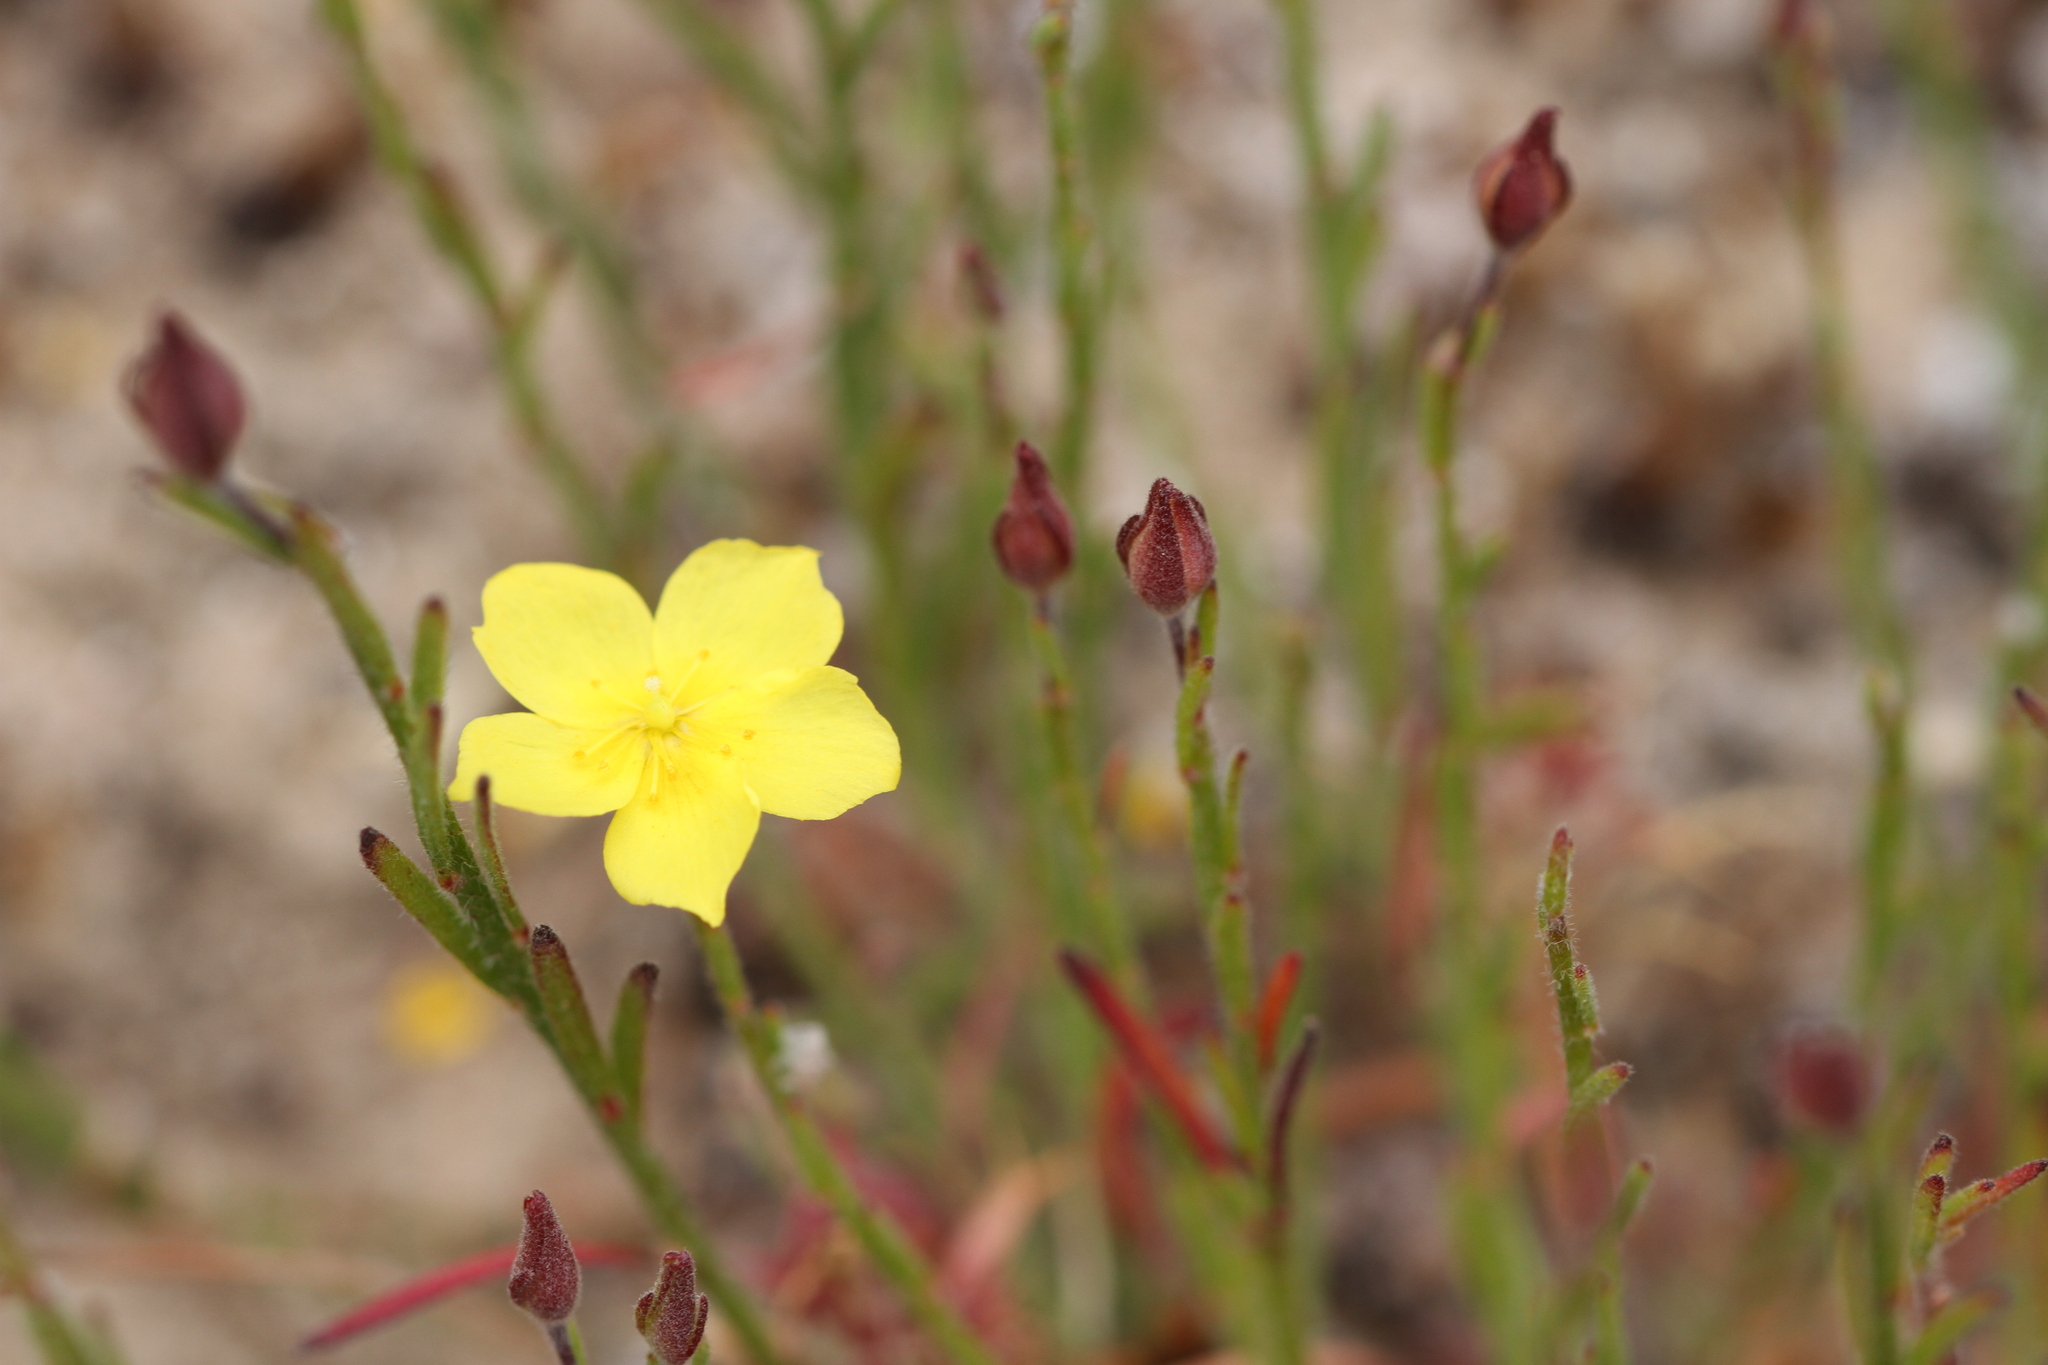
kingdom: Plantae
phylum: Tracheophyta
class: Magnoliopsida
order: Malvales
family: Cistaceae
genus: Crocanthemum
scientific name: Crocanthemum scoparium
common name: Broom-rose
